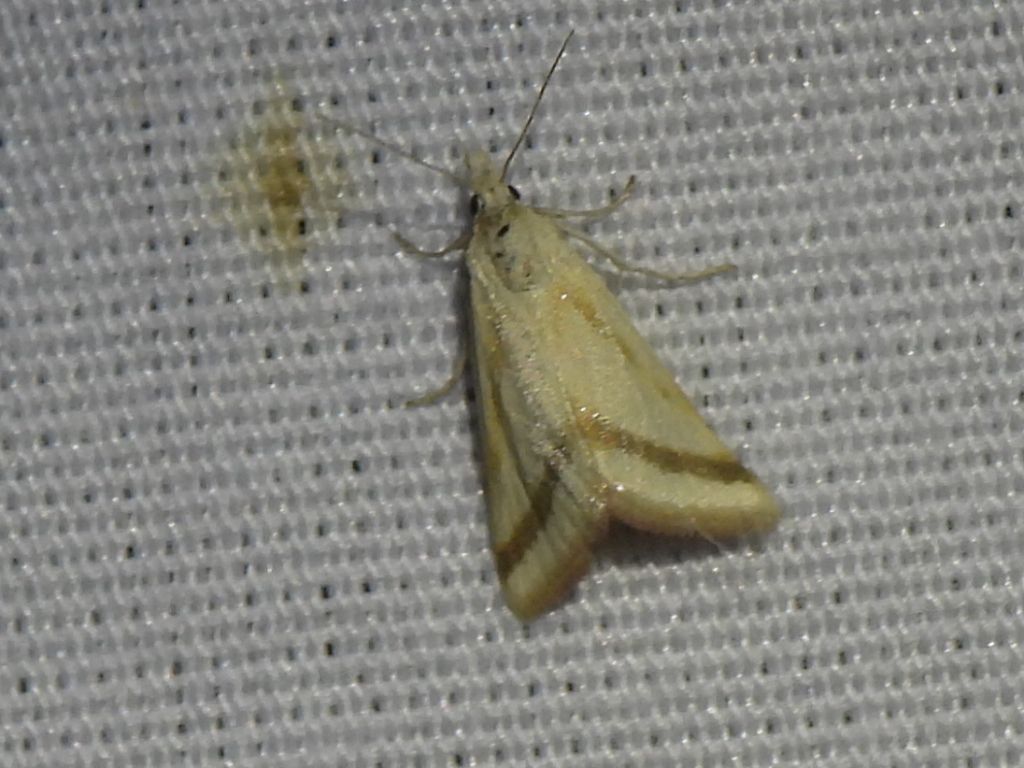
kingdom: Animalia
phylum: Arthropoda
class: Insecta
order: Lepidoptera
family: Crambidae
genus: Microtheoris
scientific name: Microtheoris vibicalis
